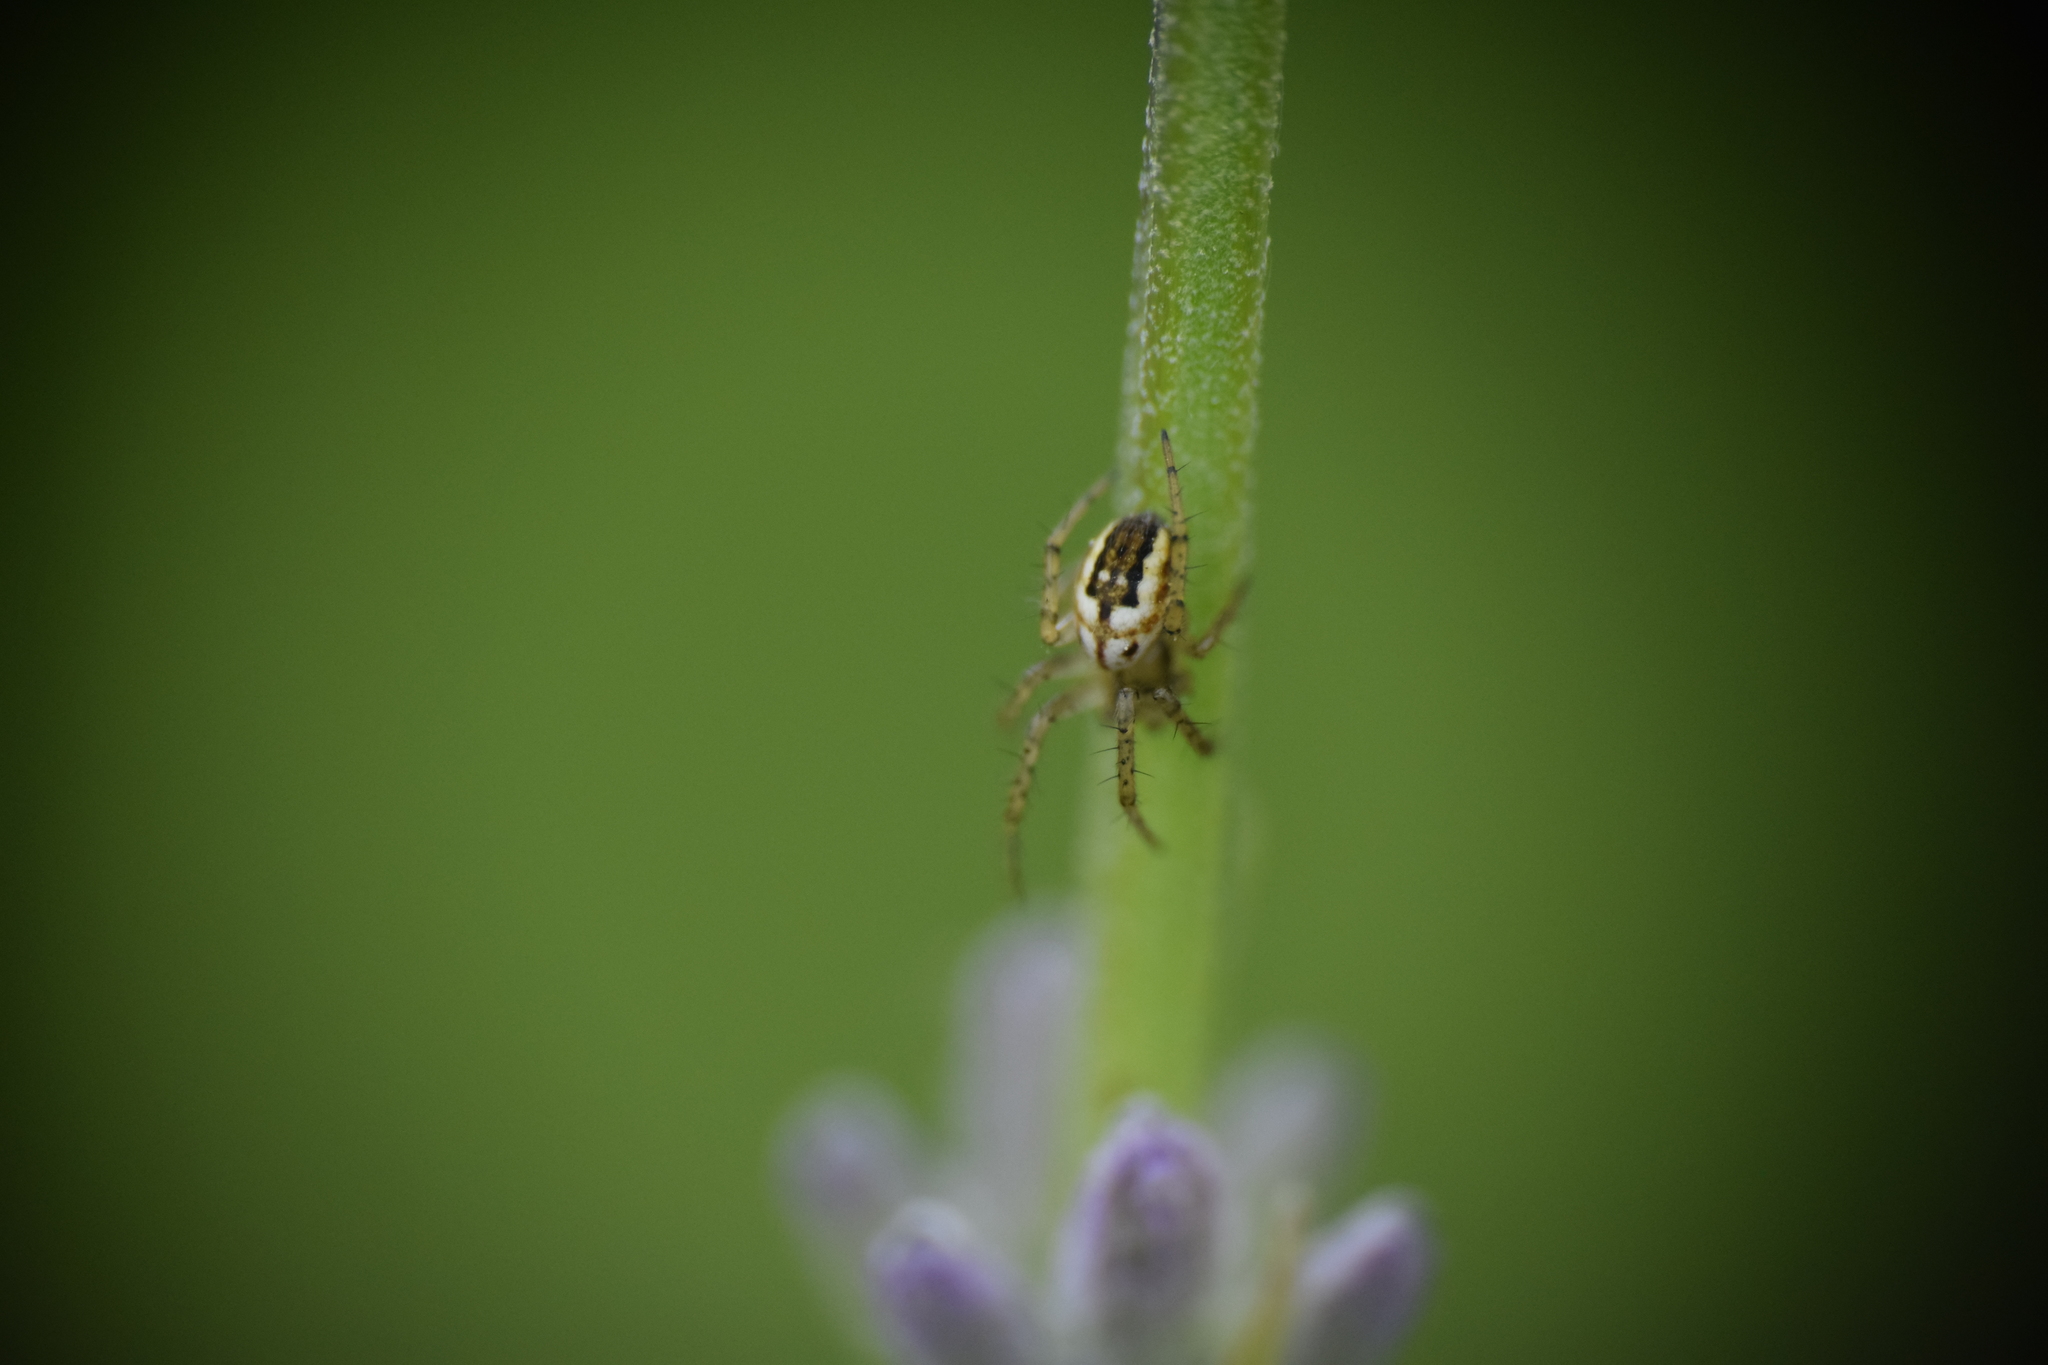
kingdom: Animalia
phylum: Arthropoda
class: Arachnida
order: Araneae
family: Araneidae
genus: Mangora
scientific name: Mangora acalypha
